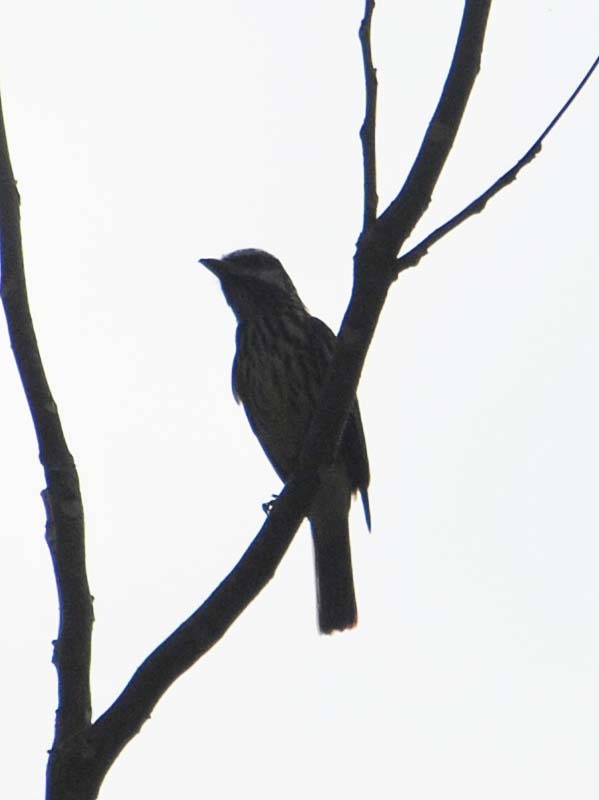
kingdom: Animalia
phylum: Chordata
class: Aves
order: Passeriformes
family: Tyrannidae
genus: Myiodynastes
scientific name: Myiodynastes luteiventris
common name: Sulphur-bellied flycatcher
